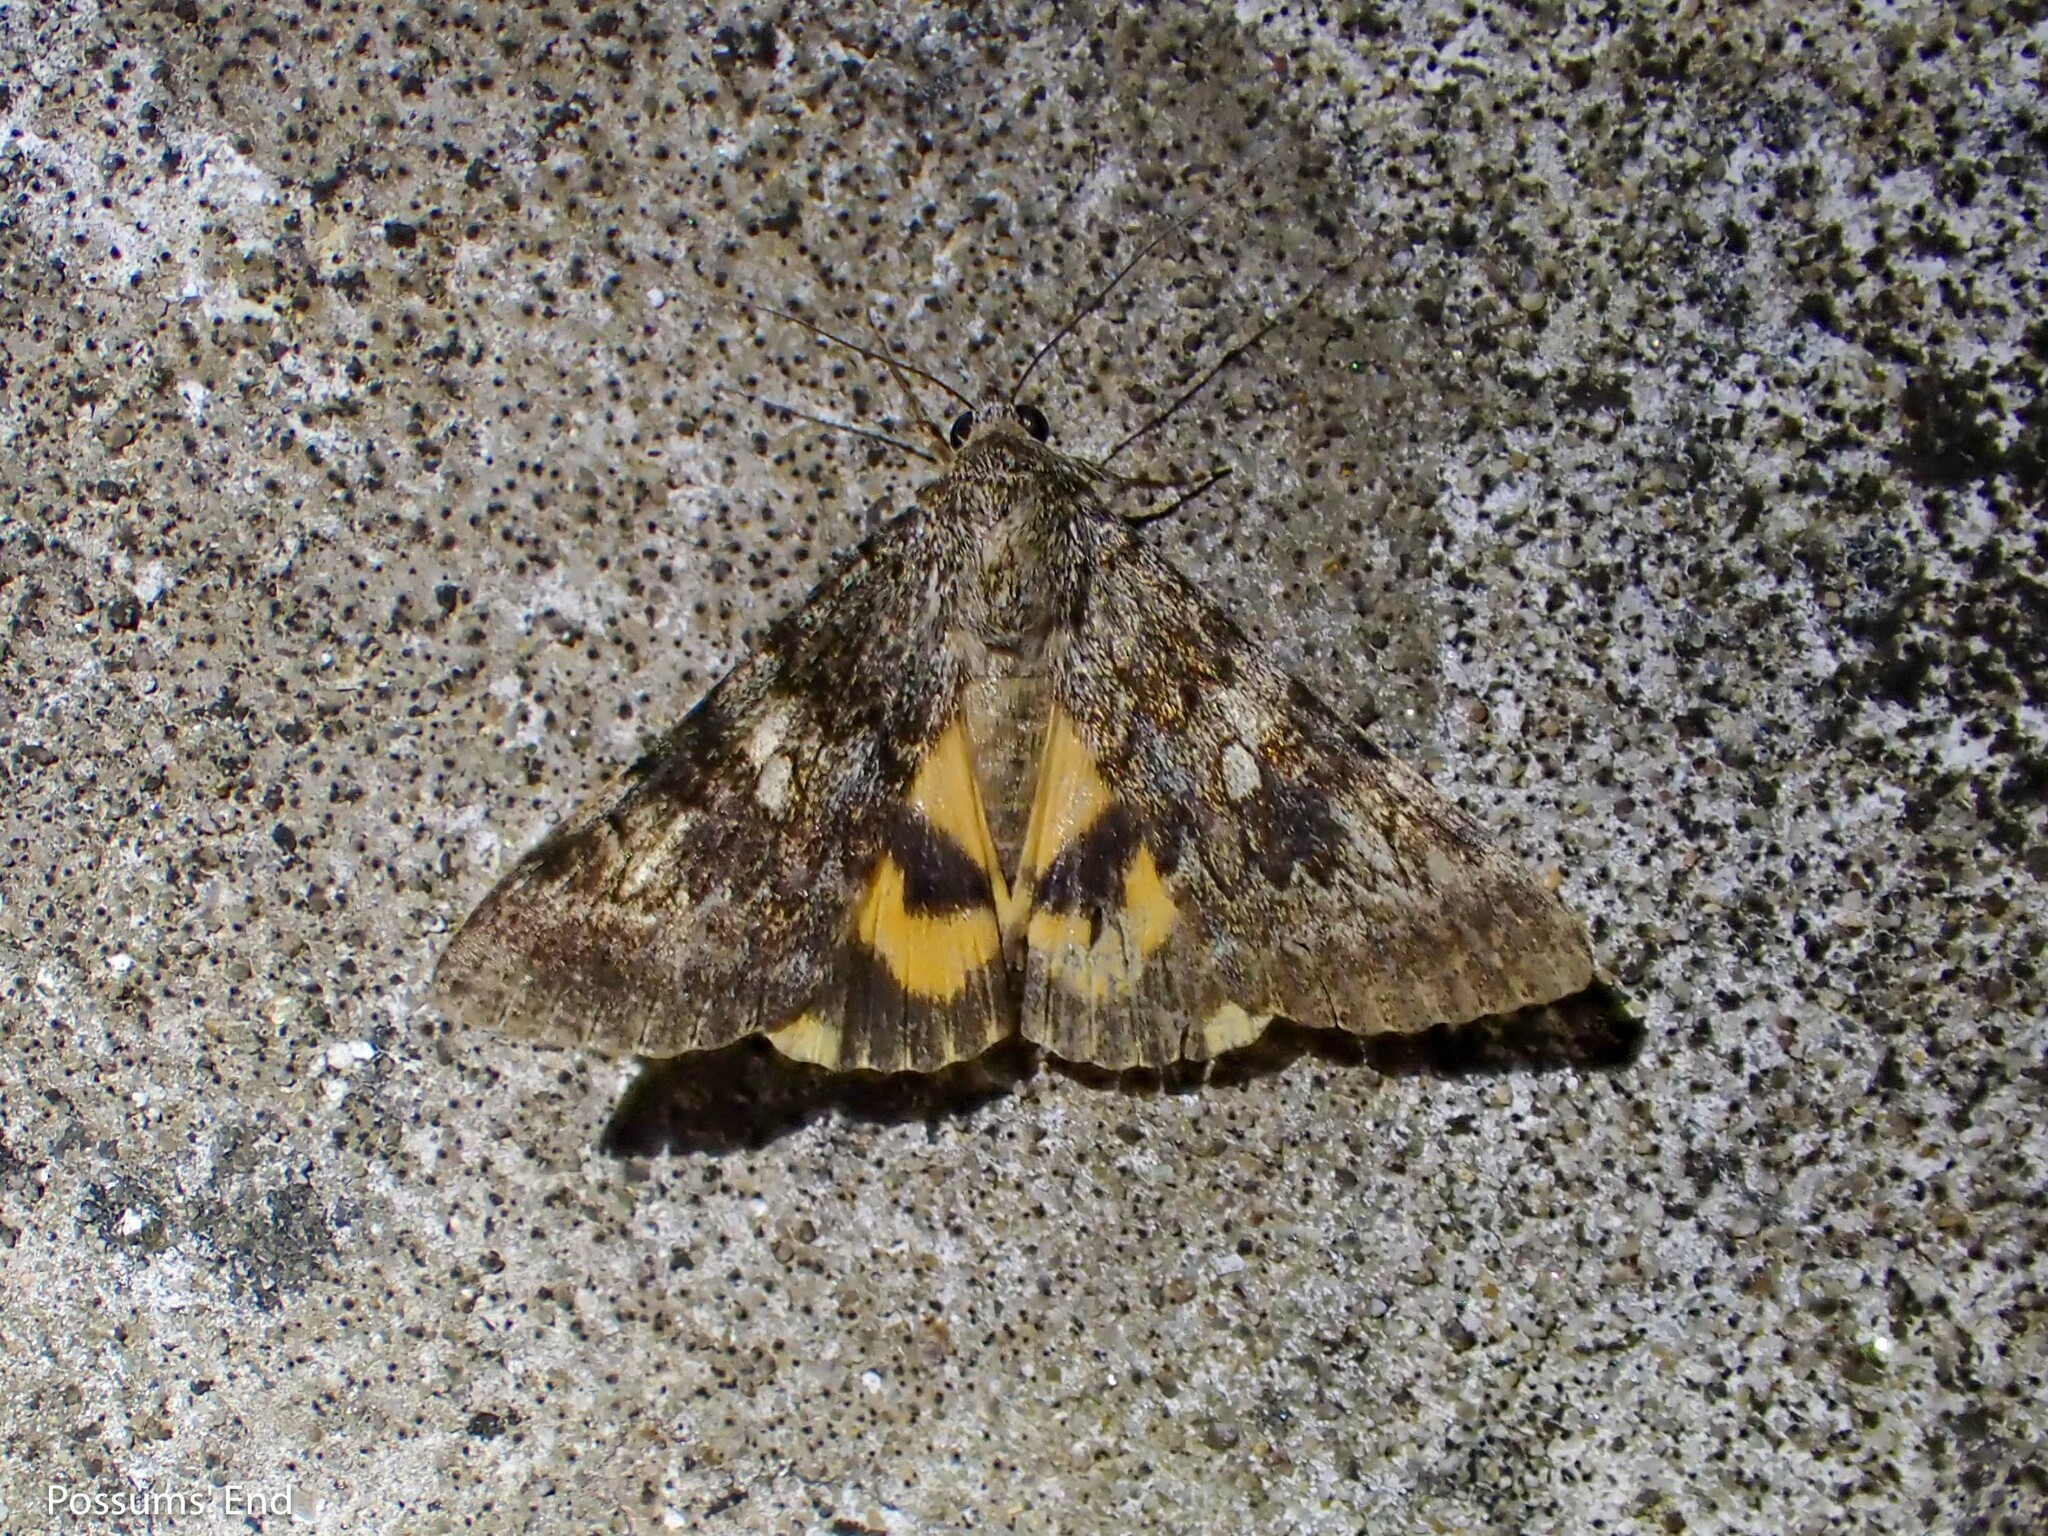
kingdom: Animalia
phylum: Arthropoda
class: Insecta
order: Lepidoptera
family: Erebidae
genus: Catocala
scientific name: Catocala nymphaea
